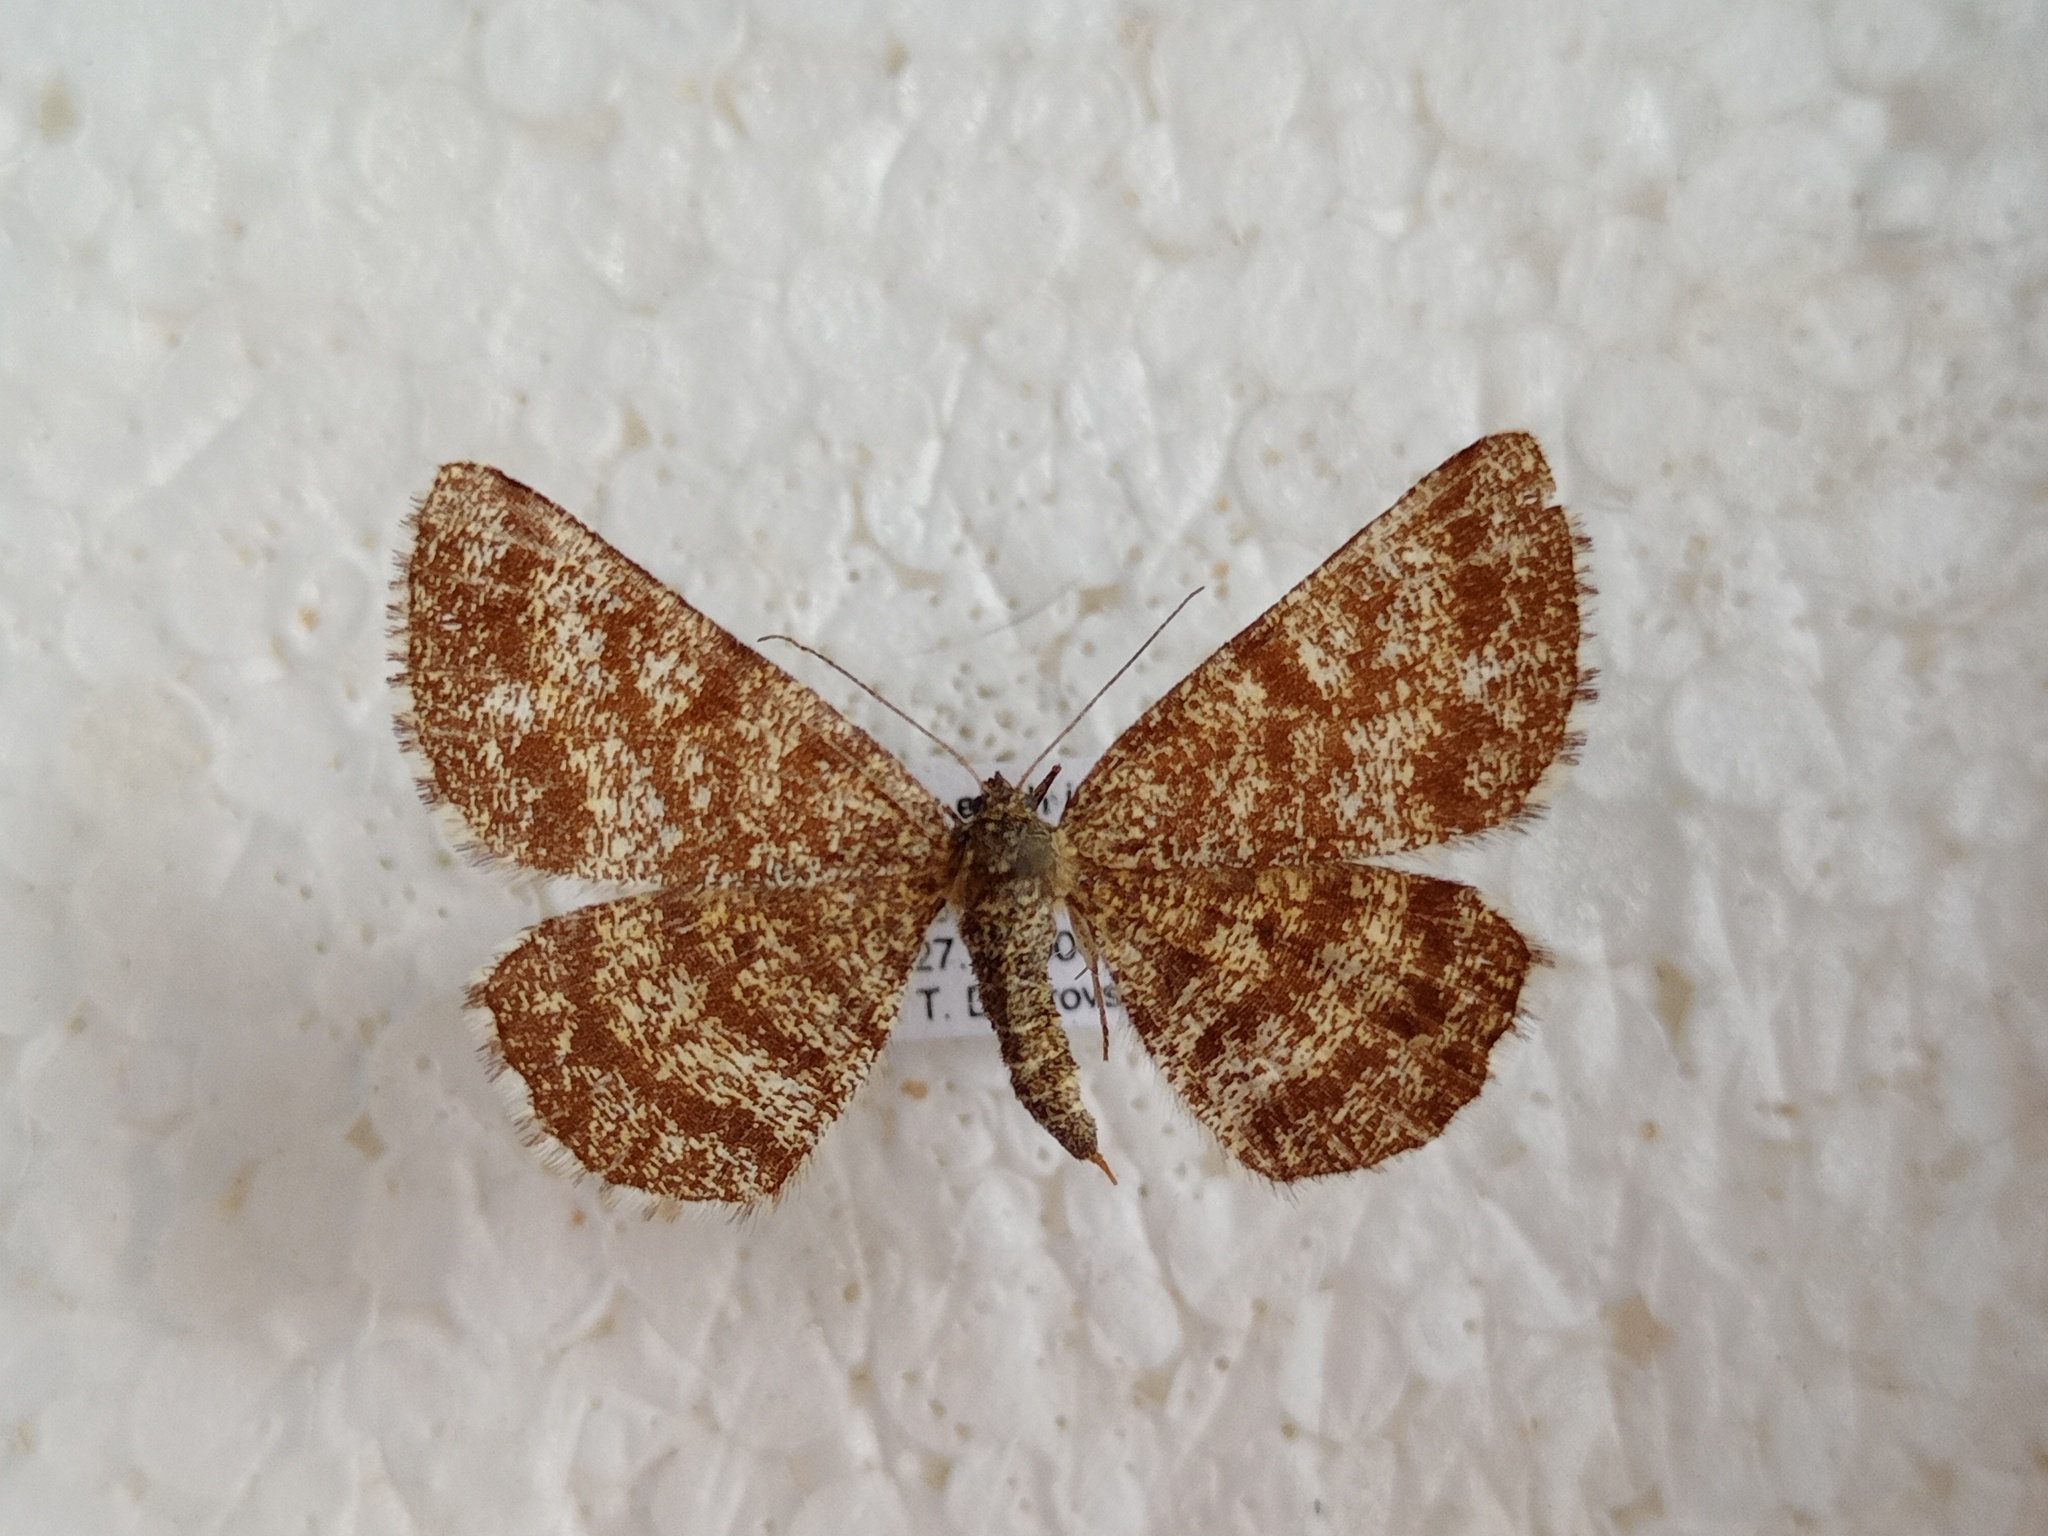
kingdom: Animalia
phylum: Arthropoda
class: Insecta
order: Lepidoptera
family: Geometridae
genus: Ematurga
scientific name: Ematurga atomaria
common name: Common heath
